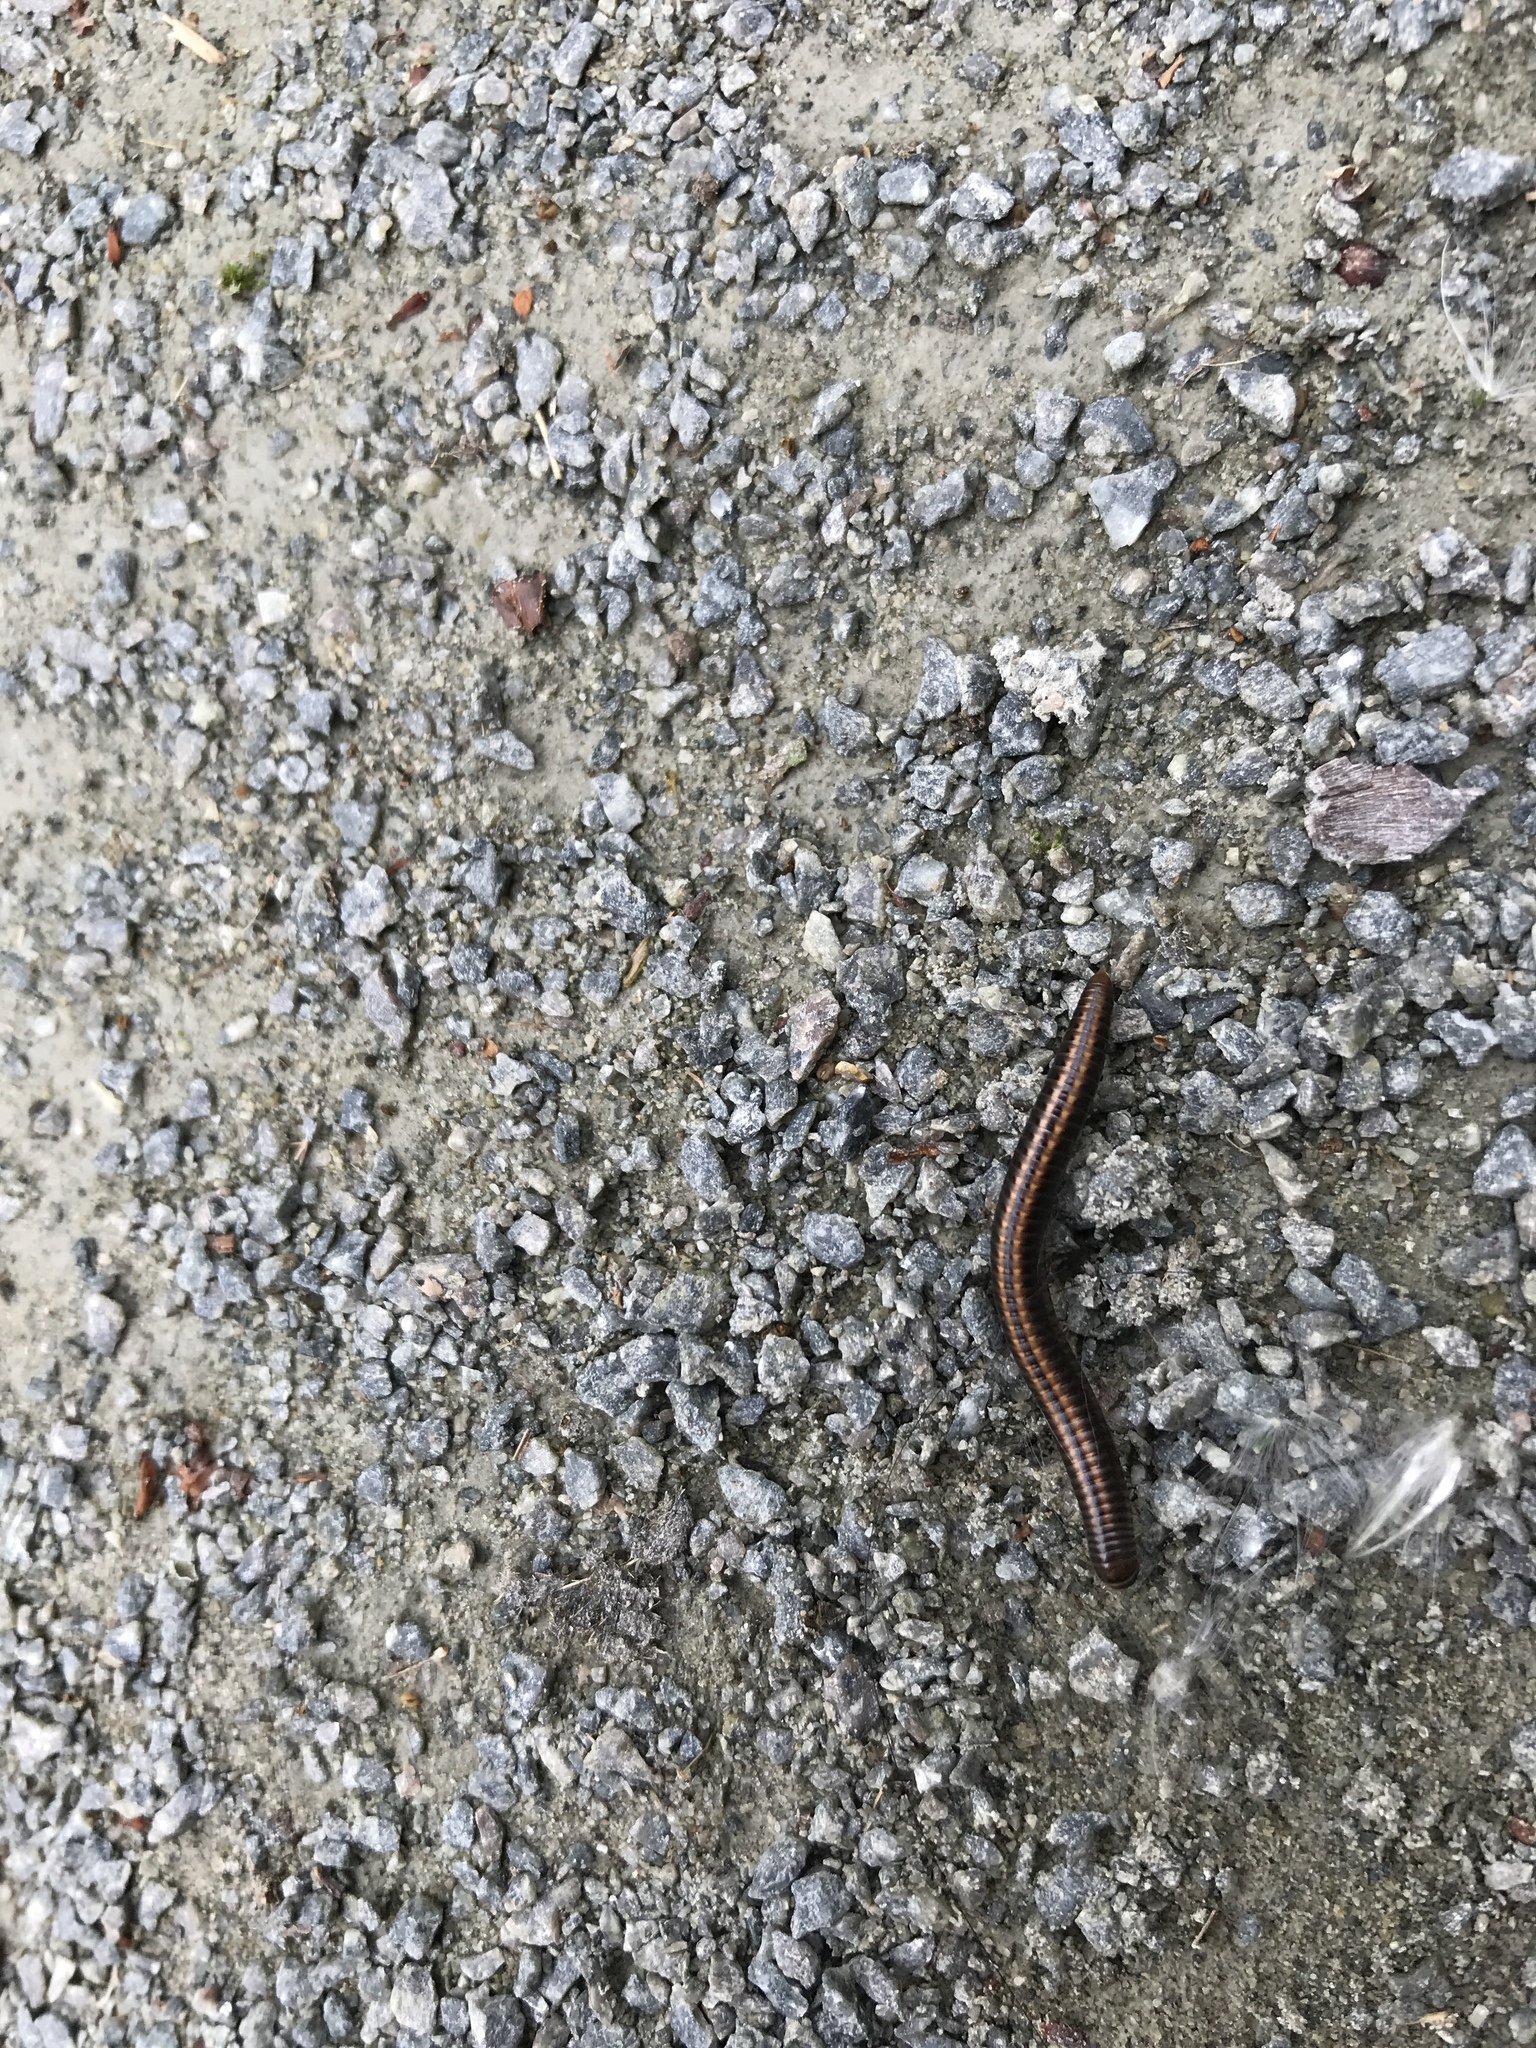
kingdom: Animalia
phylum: Arthropoda
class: Diplopoda
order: Julida
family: Julidae
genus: Ommatoiulus
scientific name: Ommatoiulus sabulosus
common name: Striped millipede
